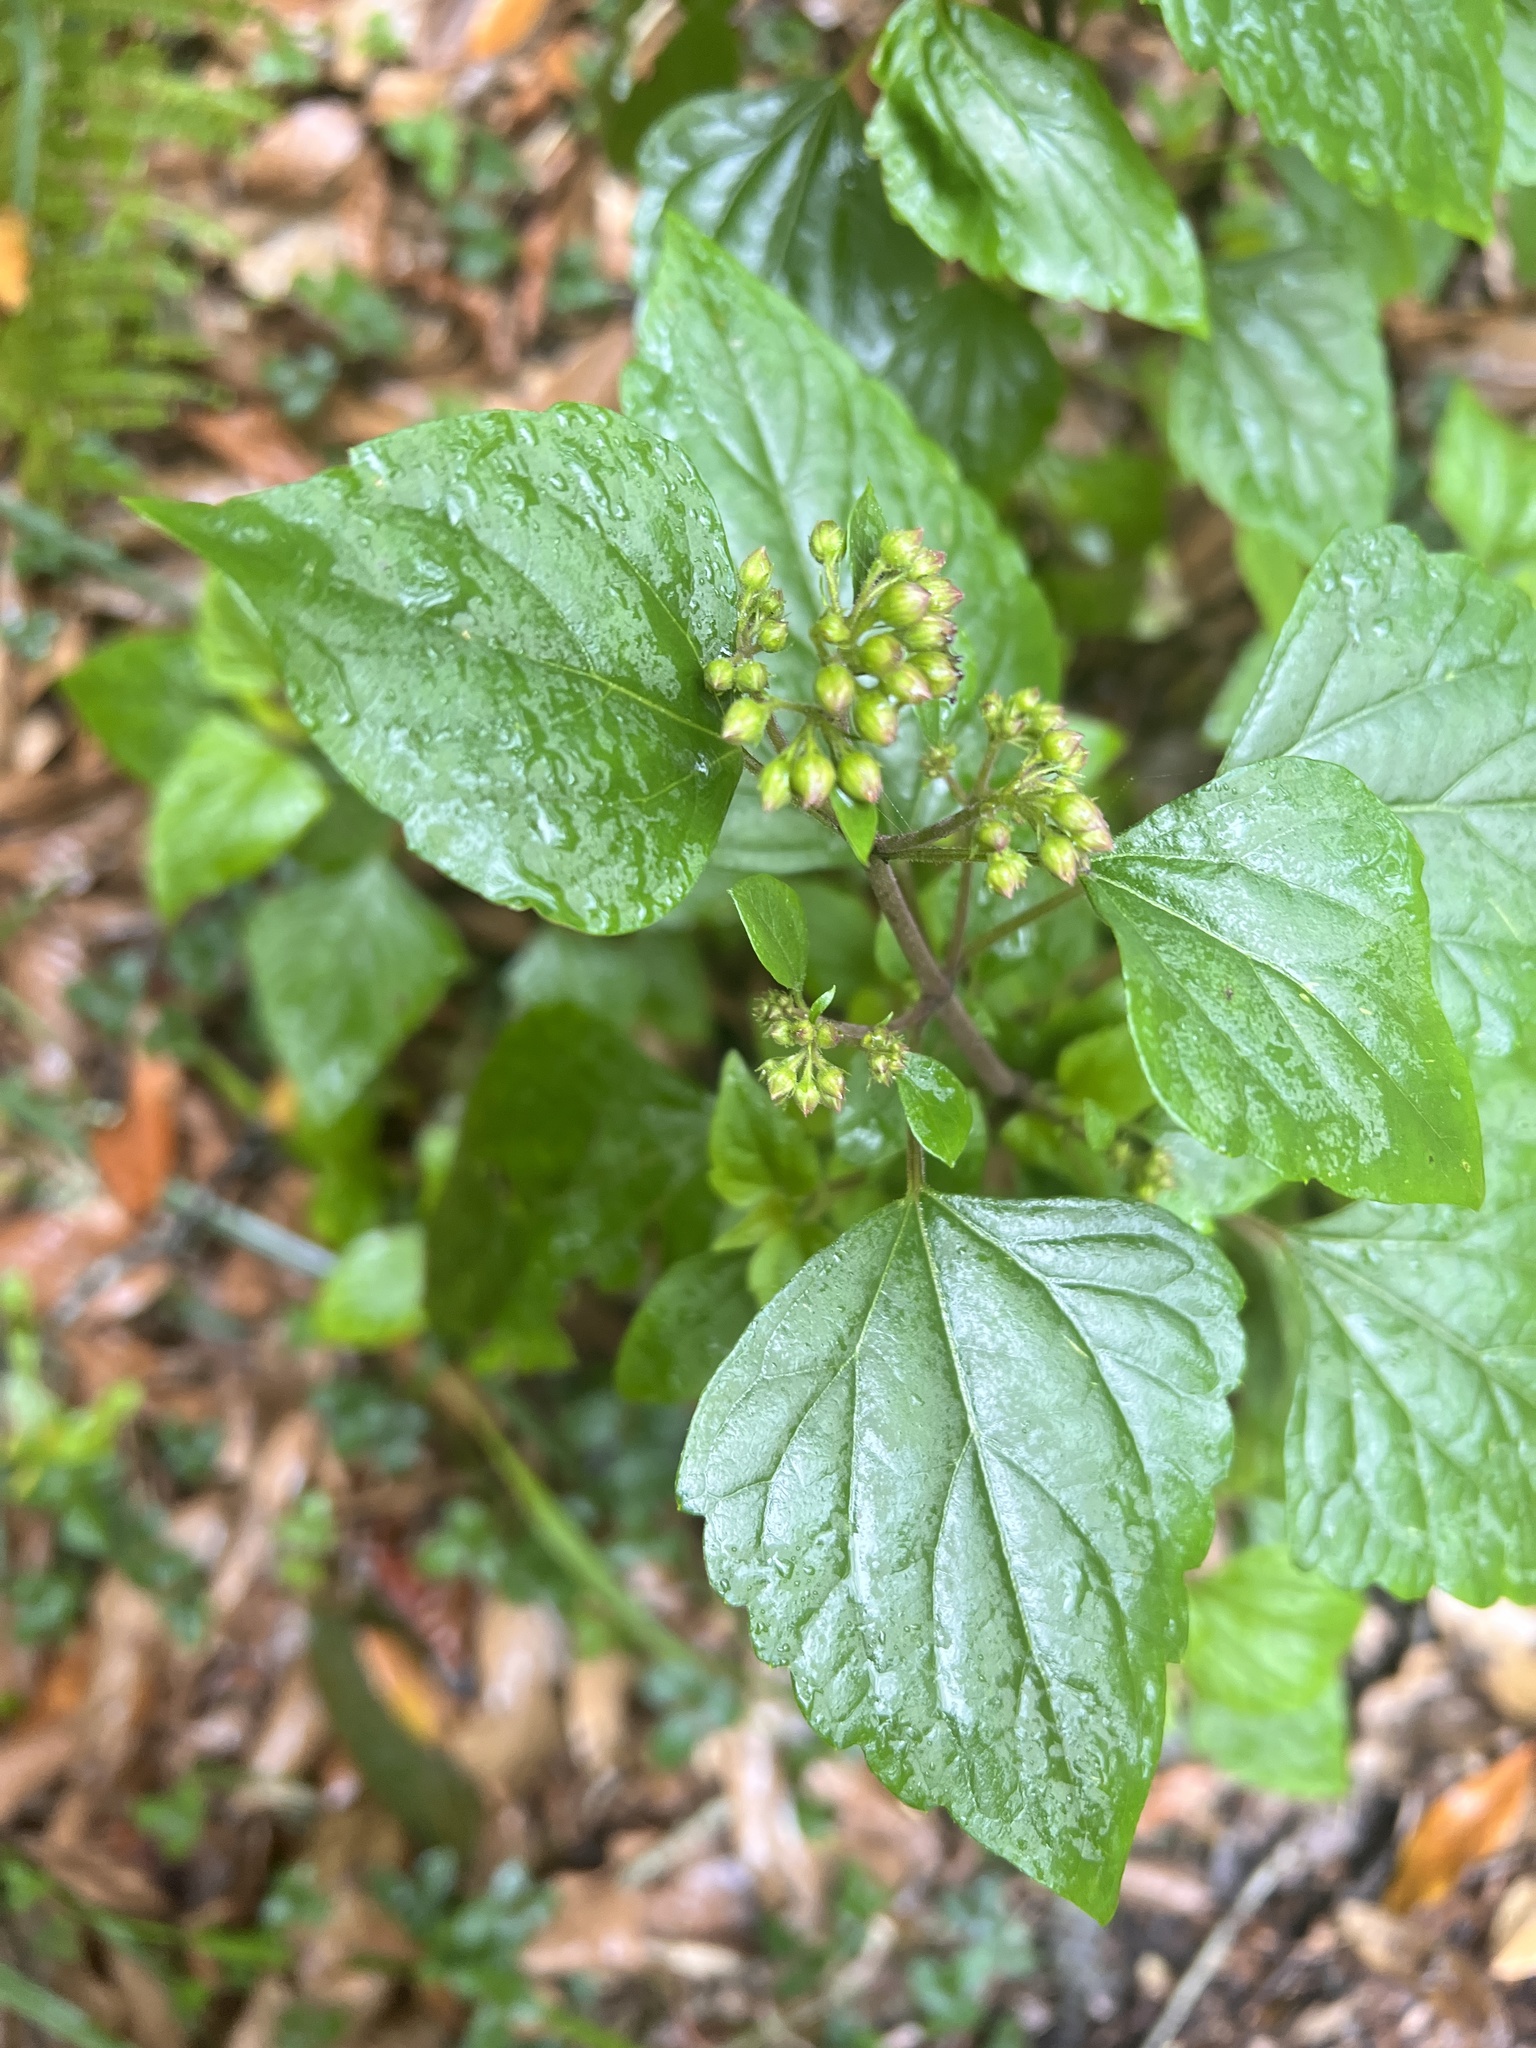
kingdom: Plantae
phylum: Tracheophyta
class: Magnoliopsida
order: Asterales
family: Asteraceae
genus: Ageratina
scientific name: Ageratina adenophora
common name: Sticky snakeroot
